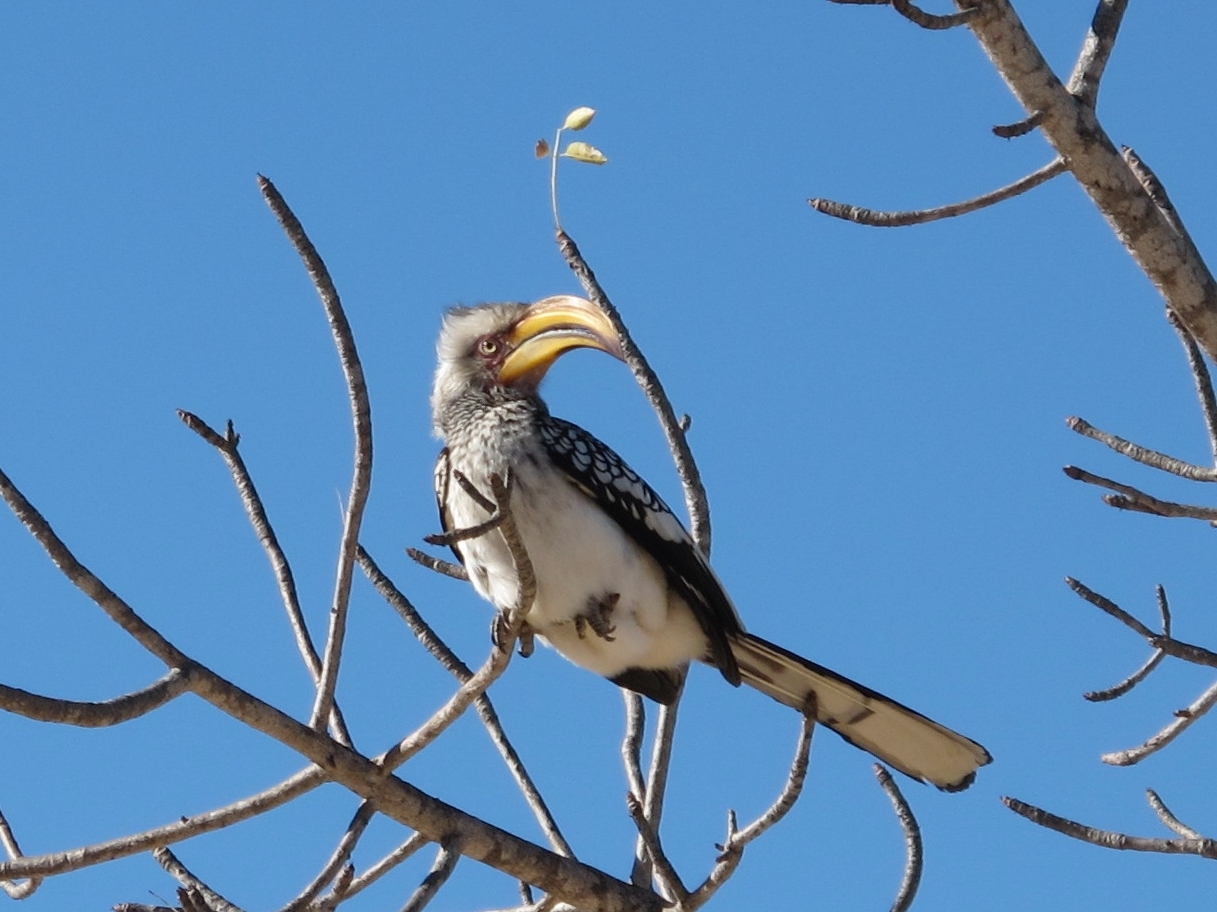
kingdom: Animalia
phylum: Chordata
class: Aves
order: Bucerotiformes
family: Bucerotidae
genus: Tockus
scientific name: Tockus leucomelas
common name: Southern yellow-billed hornbill
